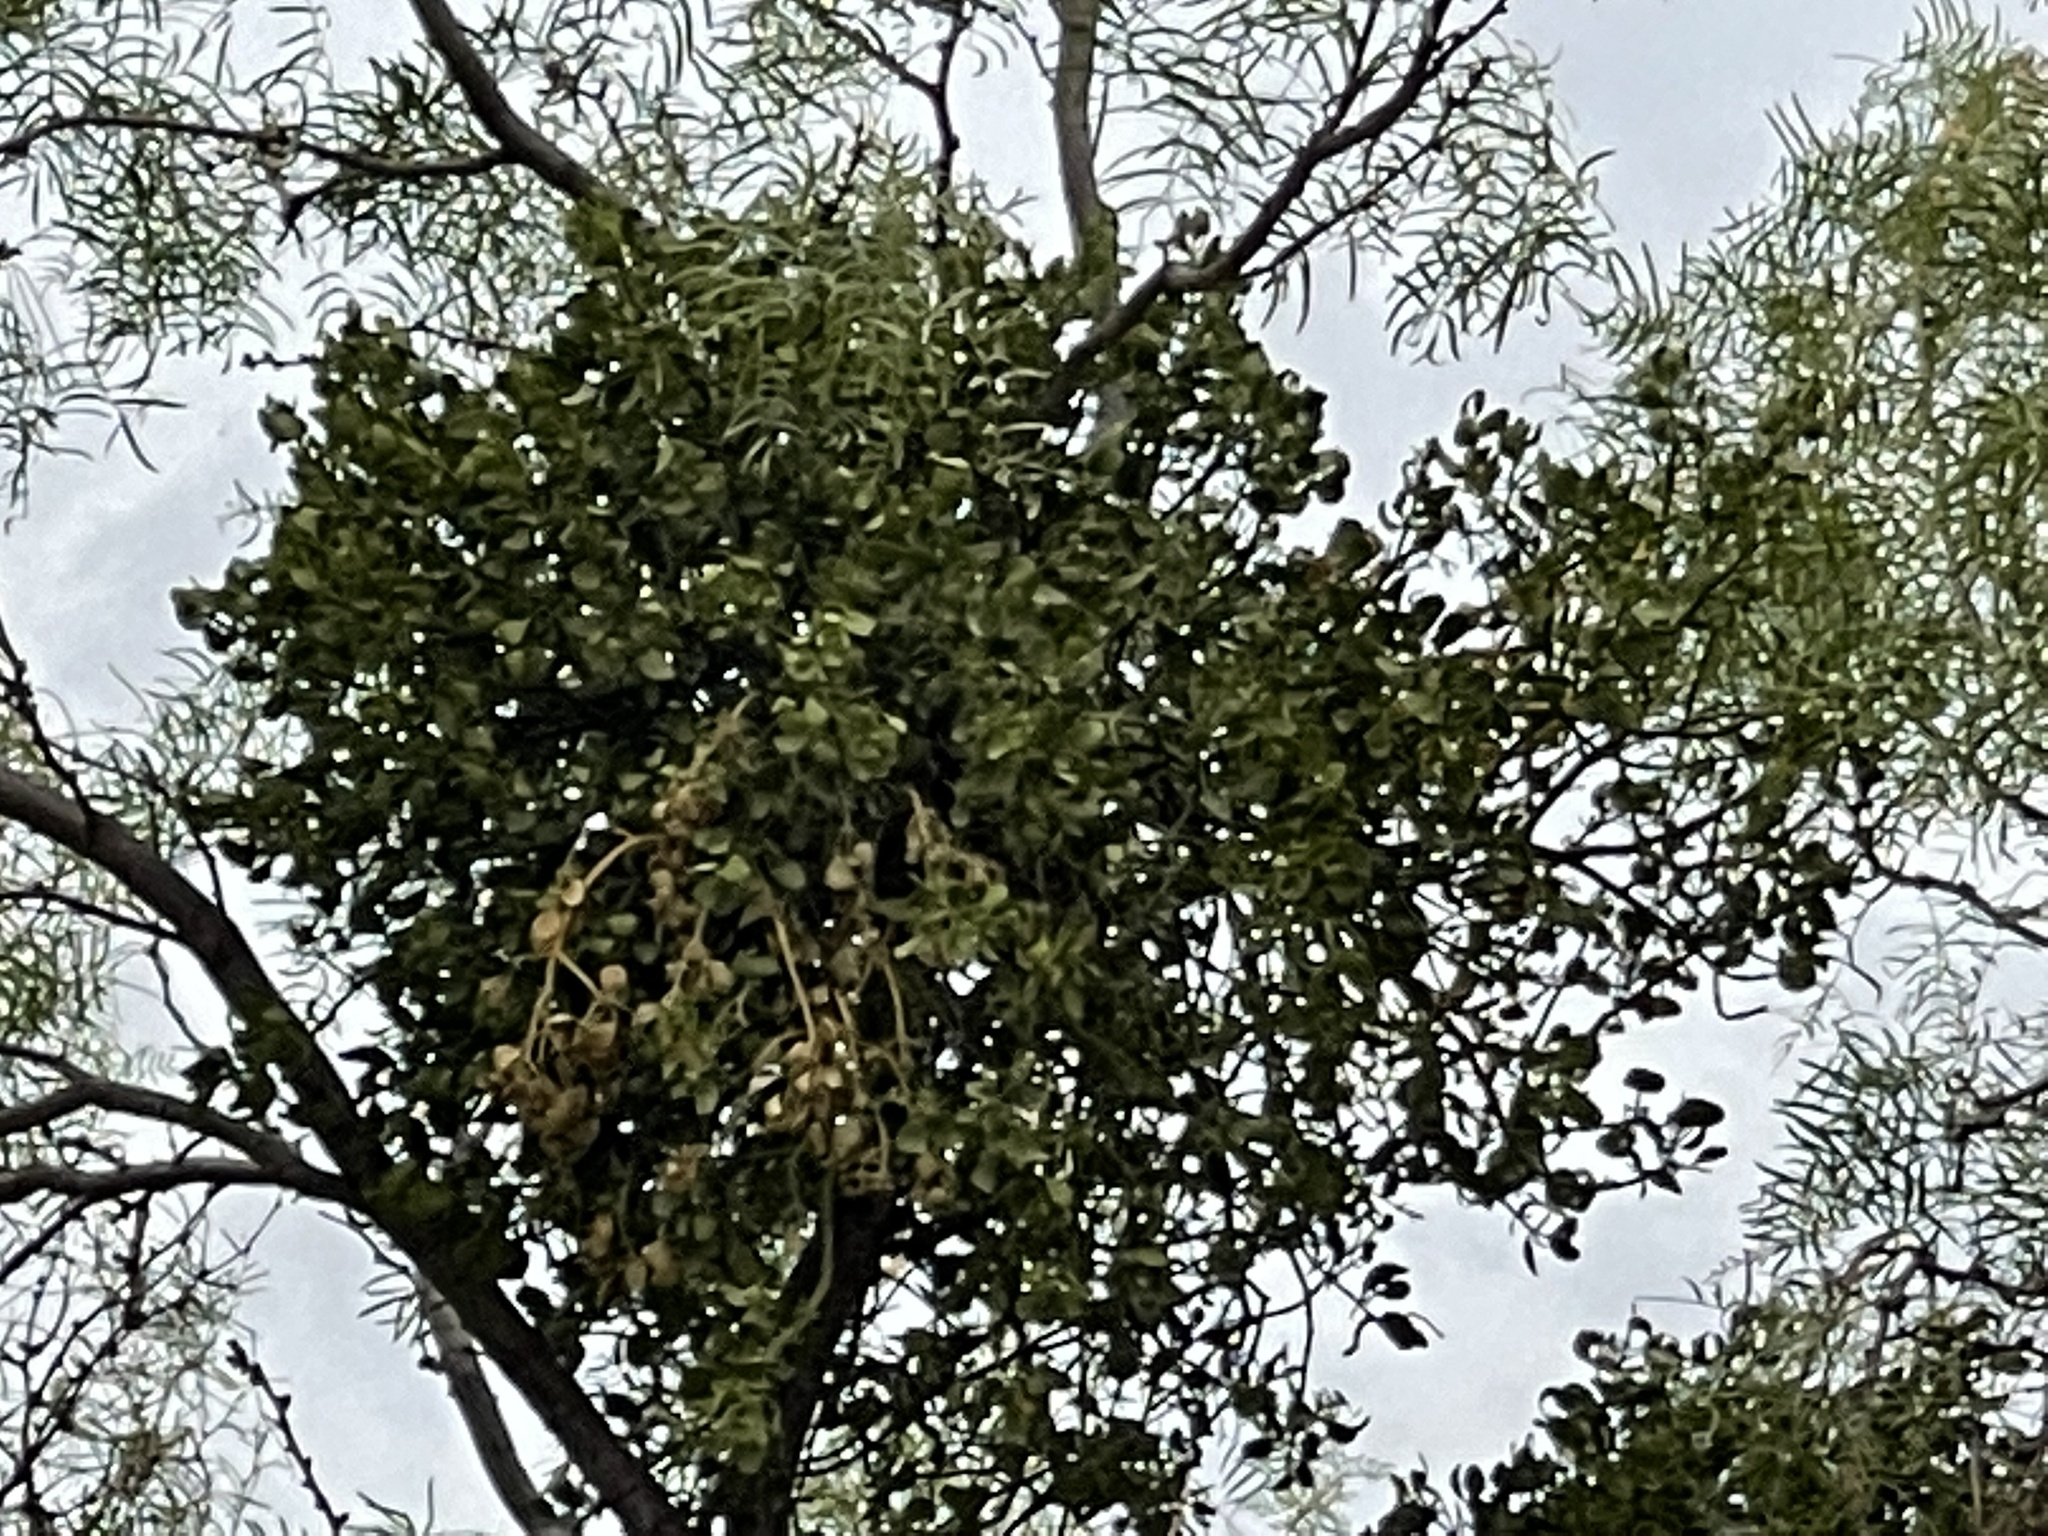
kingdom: Plantae
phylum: Tracheophyta
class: Magnoliopsida
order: Santalales
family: Viscaceae
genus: Phoradendron
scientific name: Phoradendron leucarpum
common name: Pacific mistletoe
